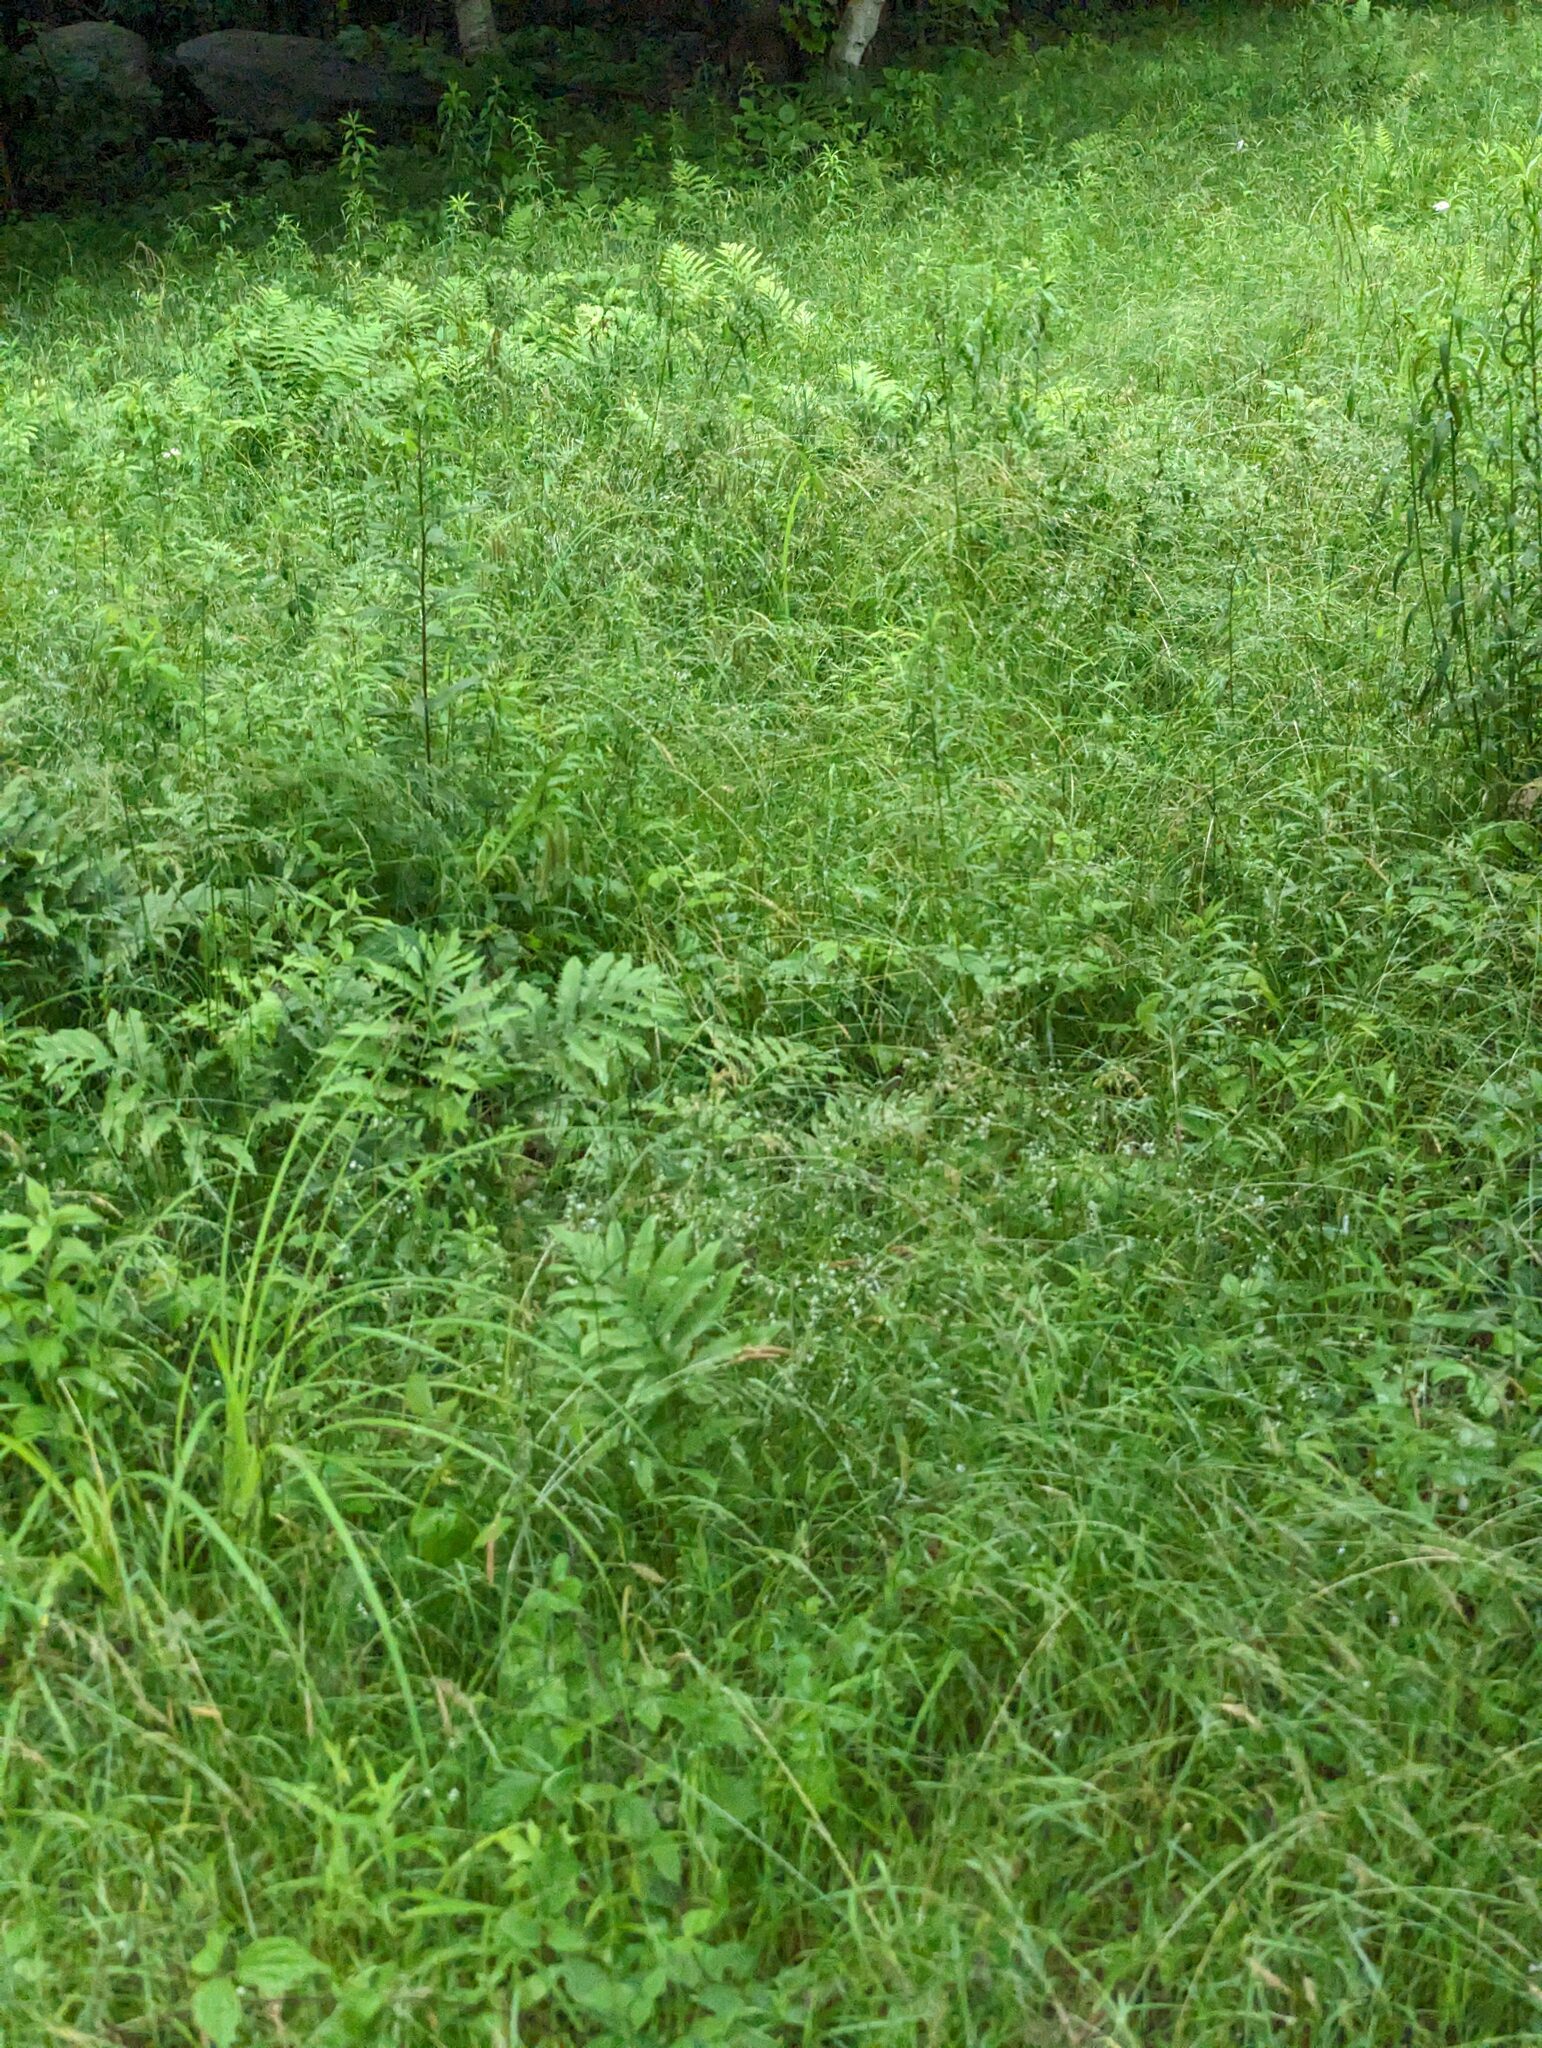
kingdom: Plantae
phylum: Tracheophyta
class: Polypodiopsida
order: Polypodiales
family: Onocleaceae
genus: Onoclea
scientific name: Onoclea sensibilis
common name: Sensitive fern
